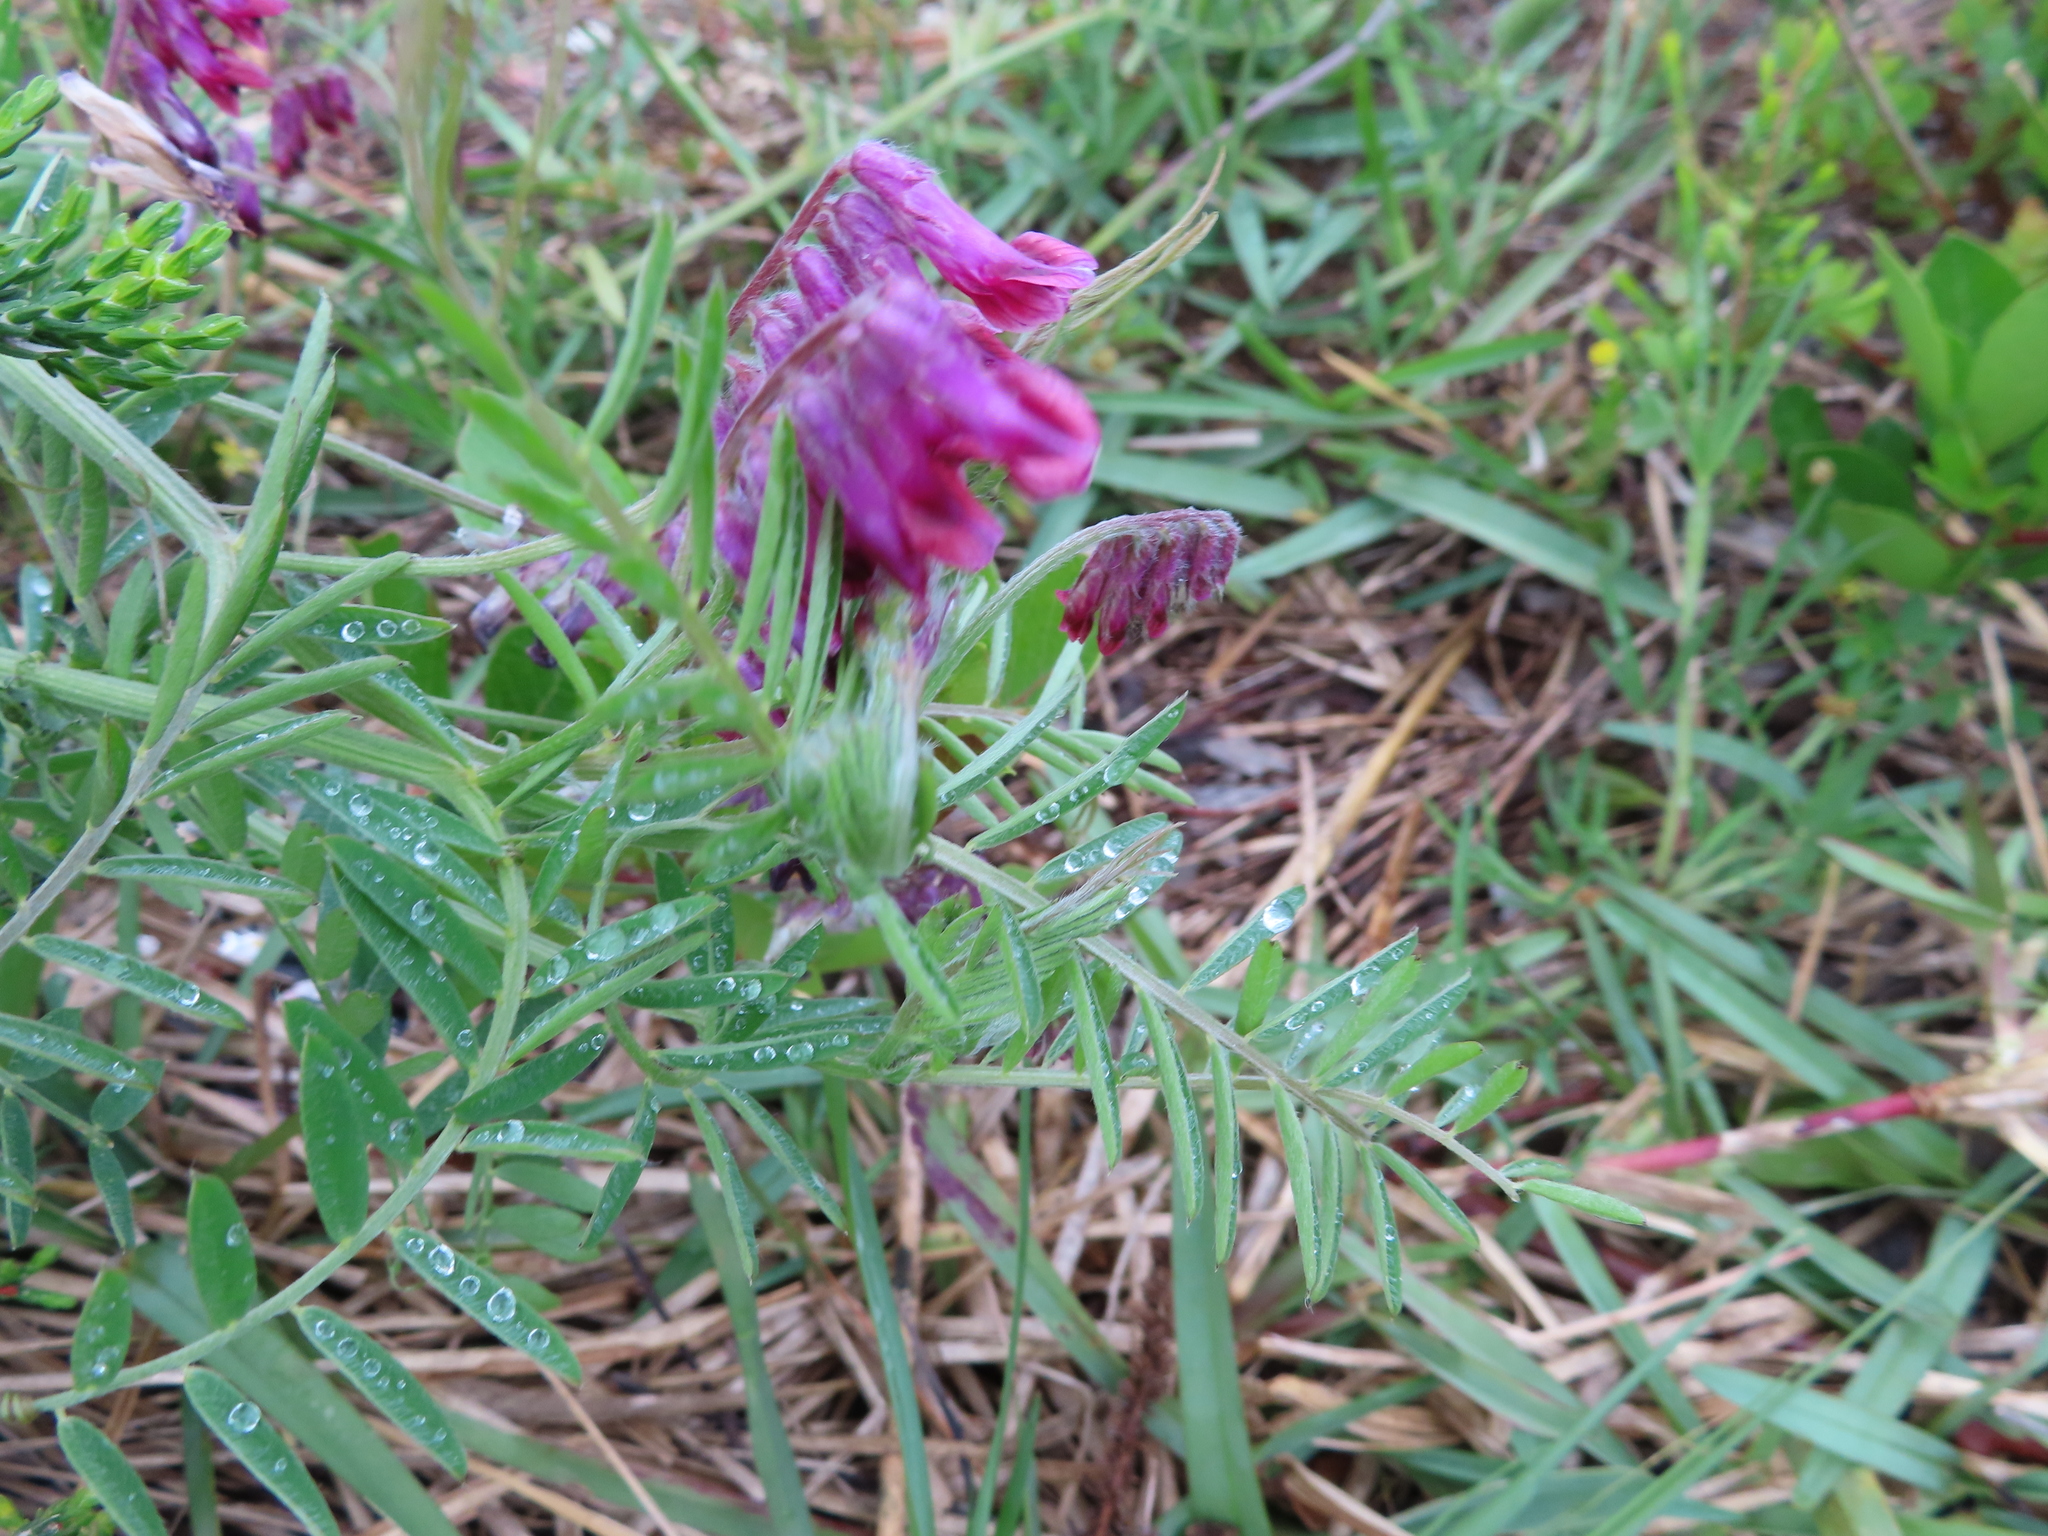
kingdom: Plantae
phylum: Tracheophyta
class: Magnoliopsida
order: Fabales
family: Fabaceae
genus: Vicia
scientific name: Vicia benghalensis
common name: Purple vetch
